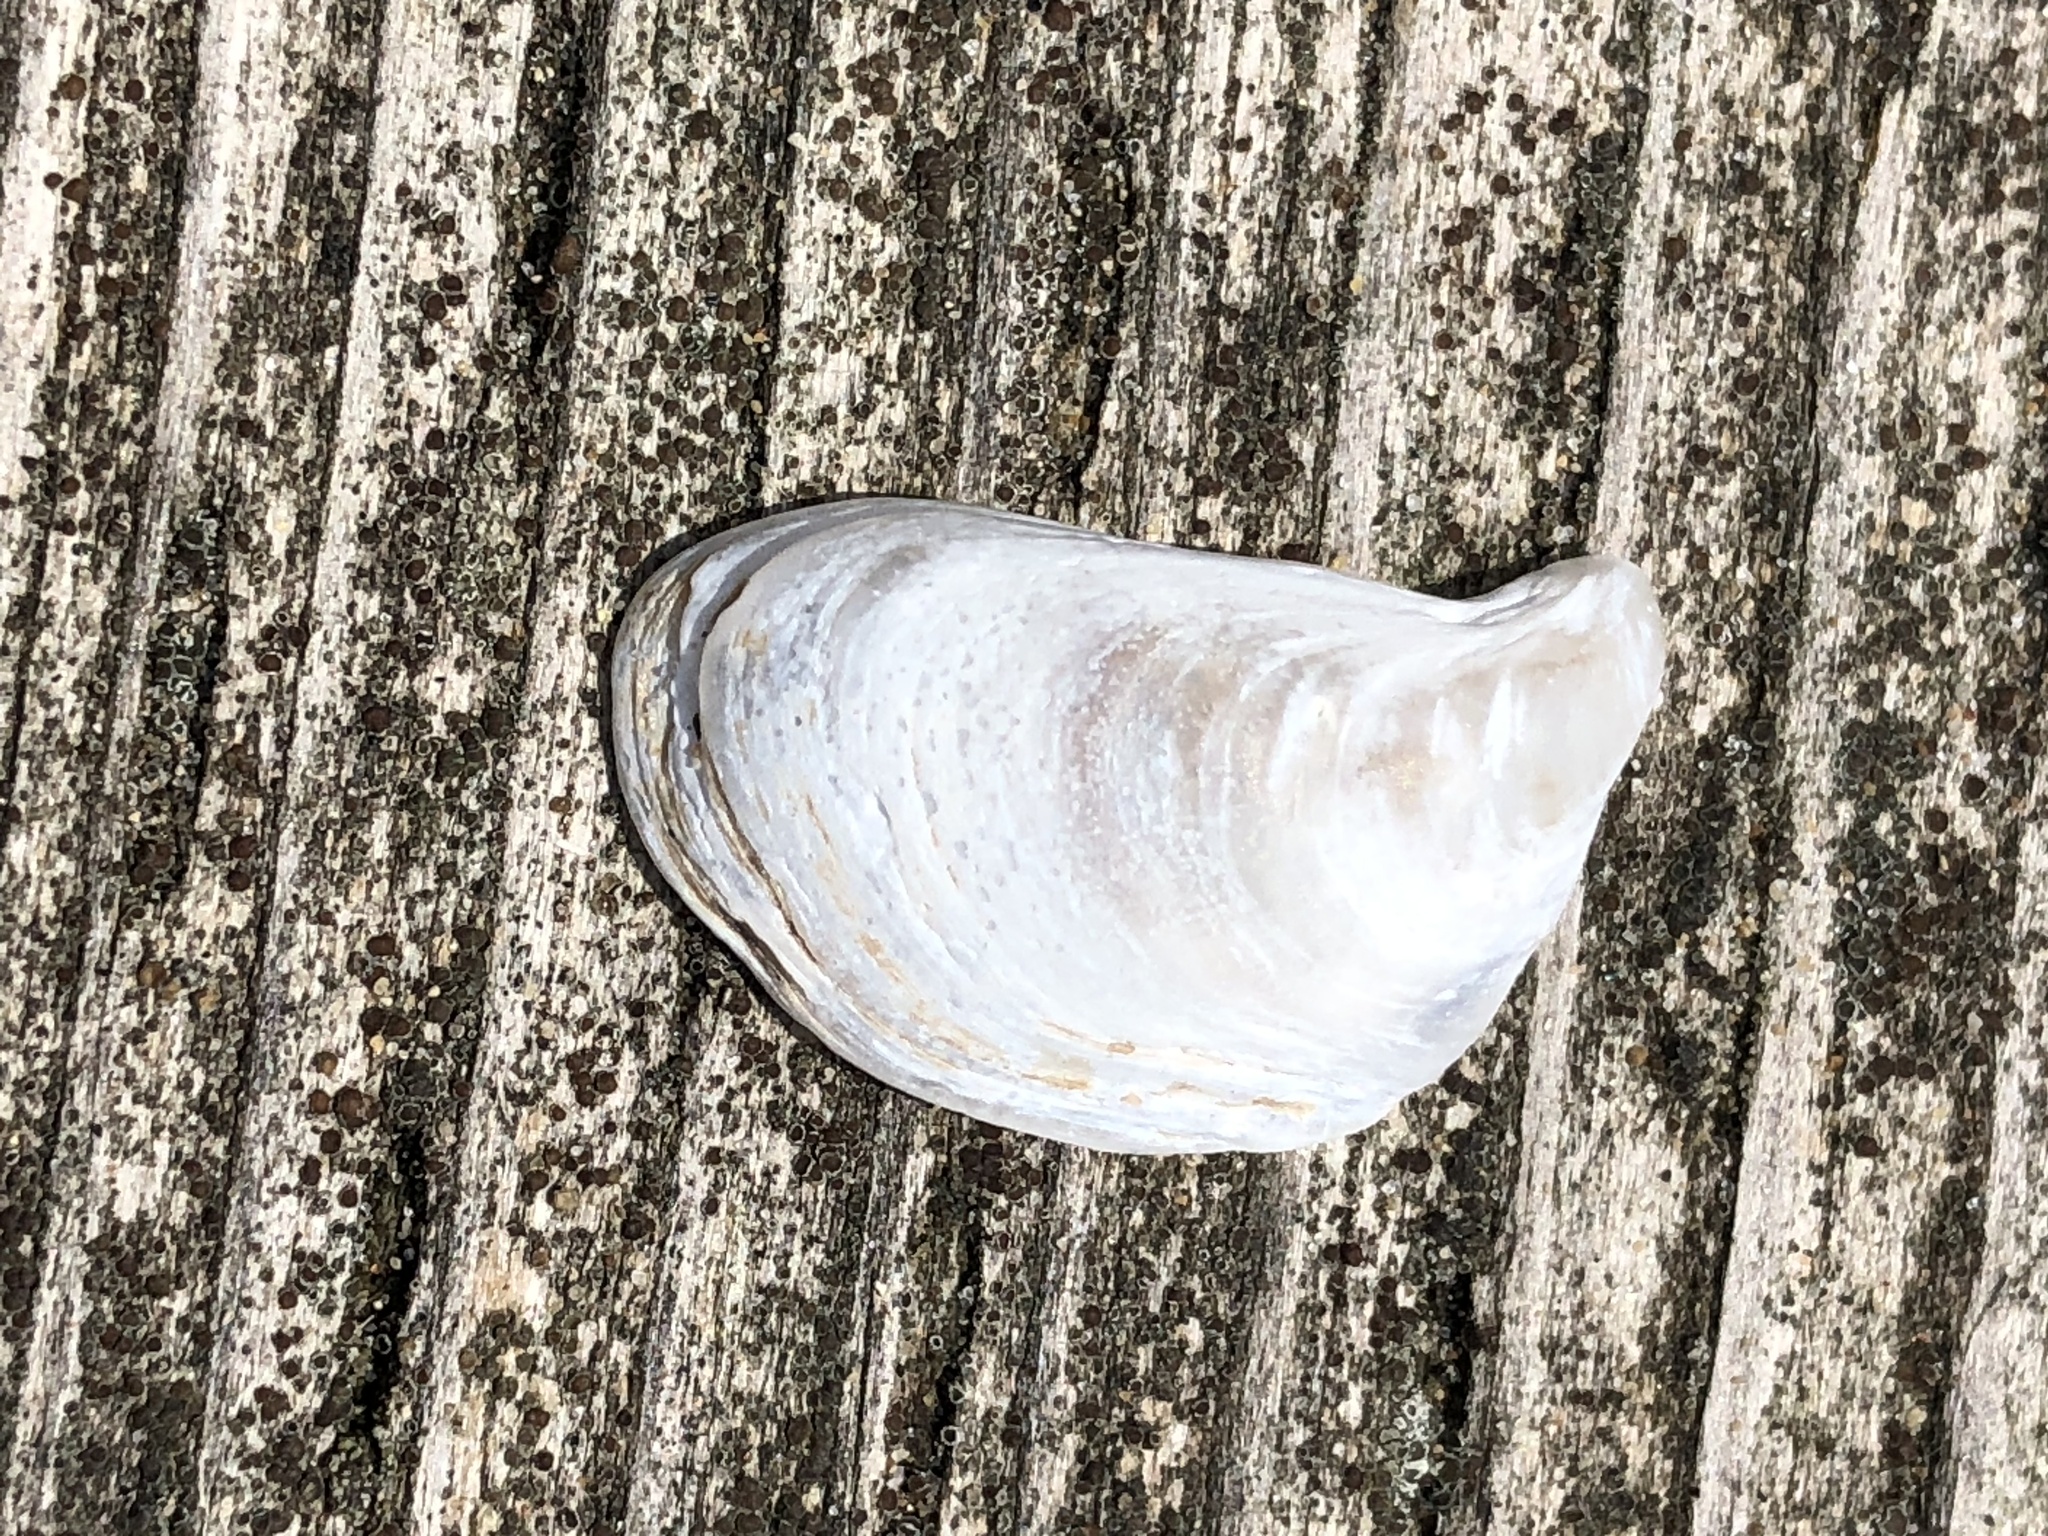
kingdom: Animalia
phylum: Mollusca
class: Bivalvia
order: Myida
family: Dreissenidae
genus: Dreissena
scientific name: Dreissena bugensis
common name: Quagga mussel
